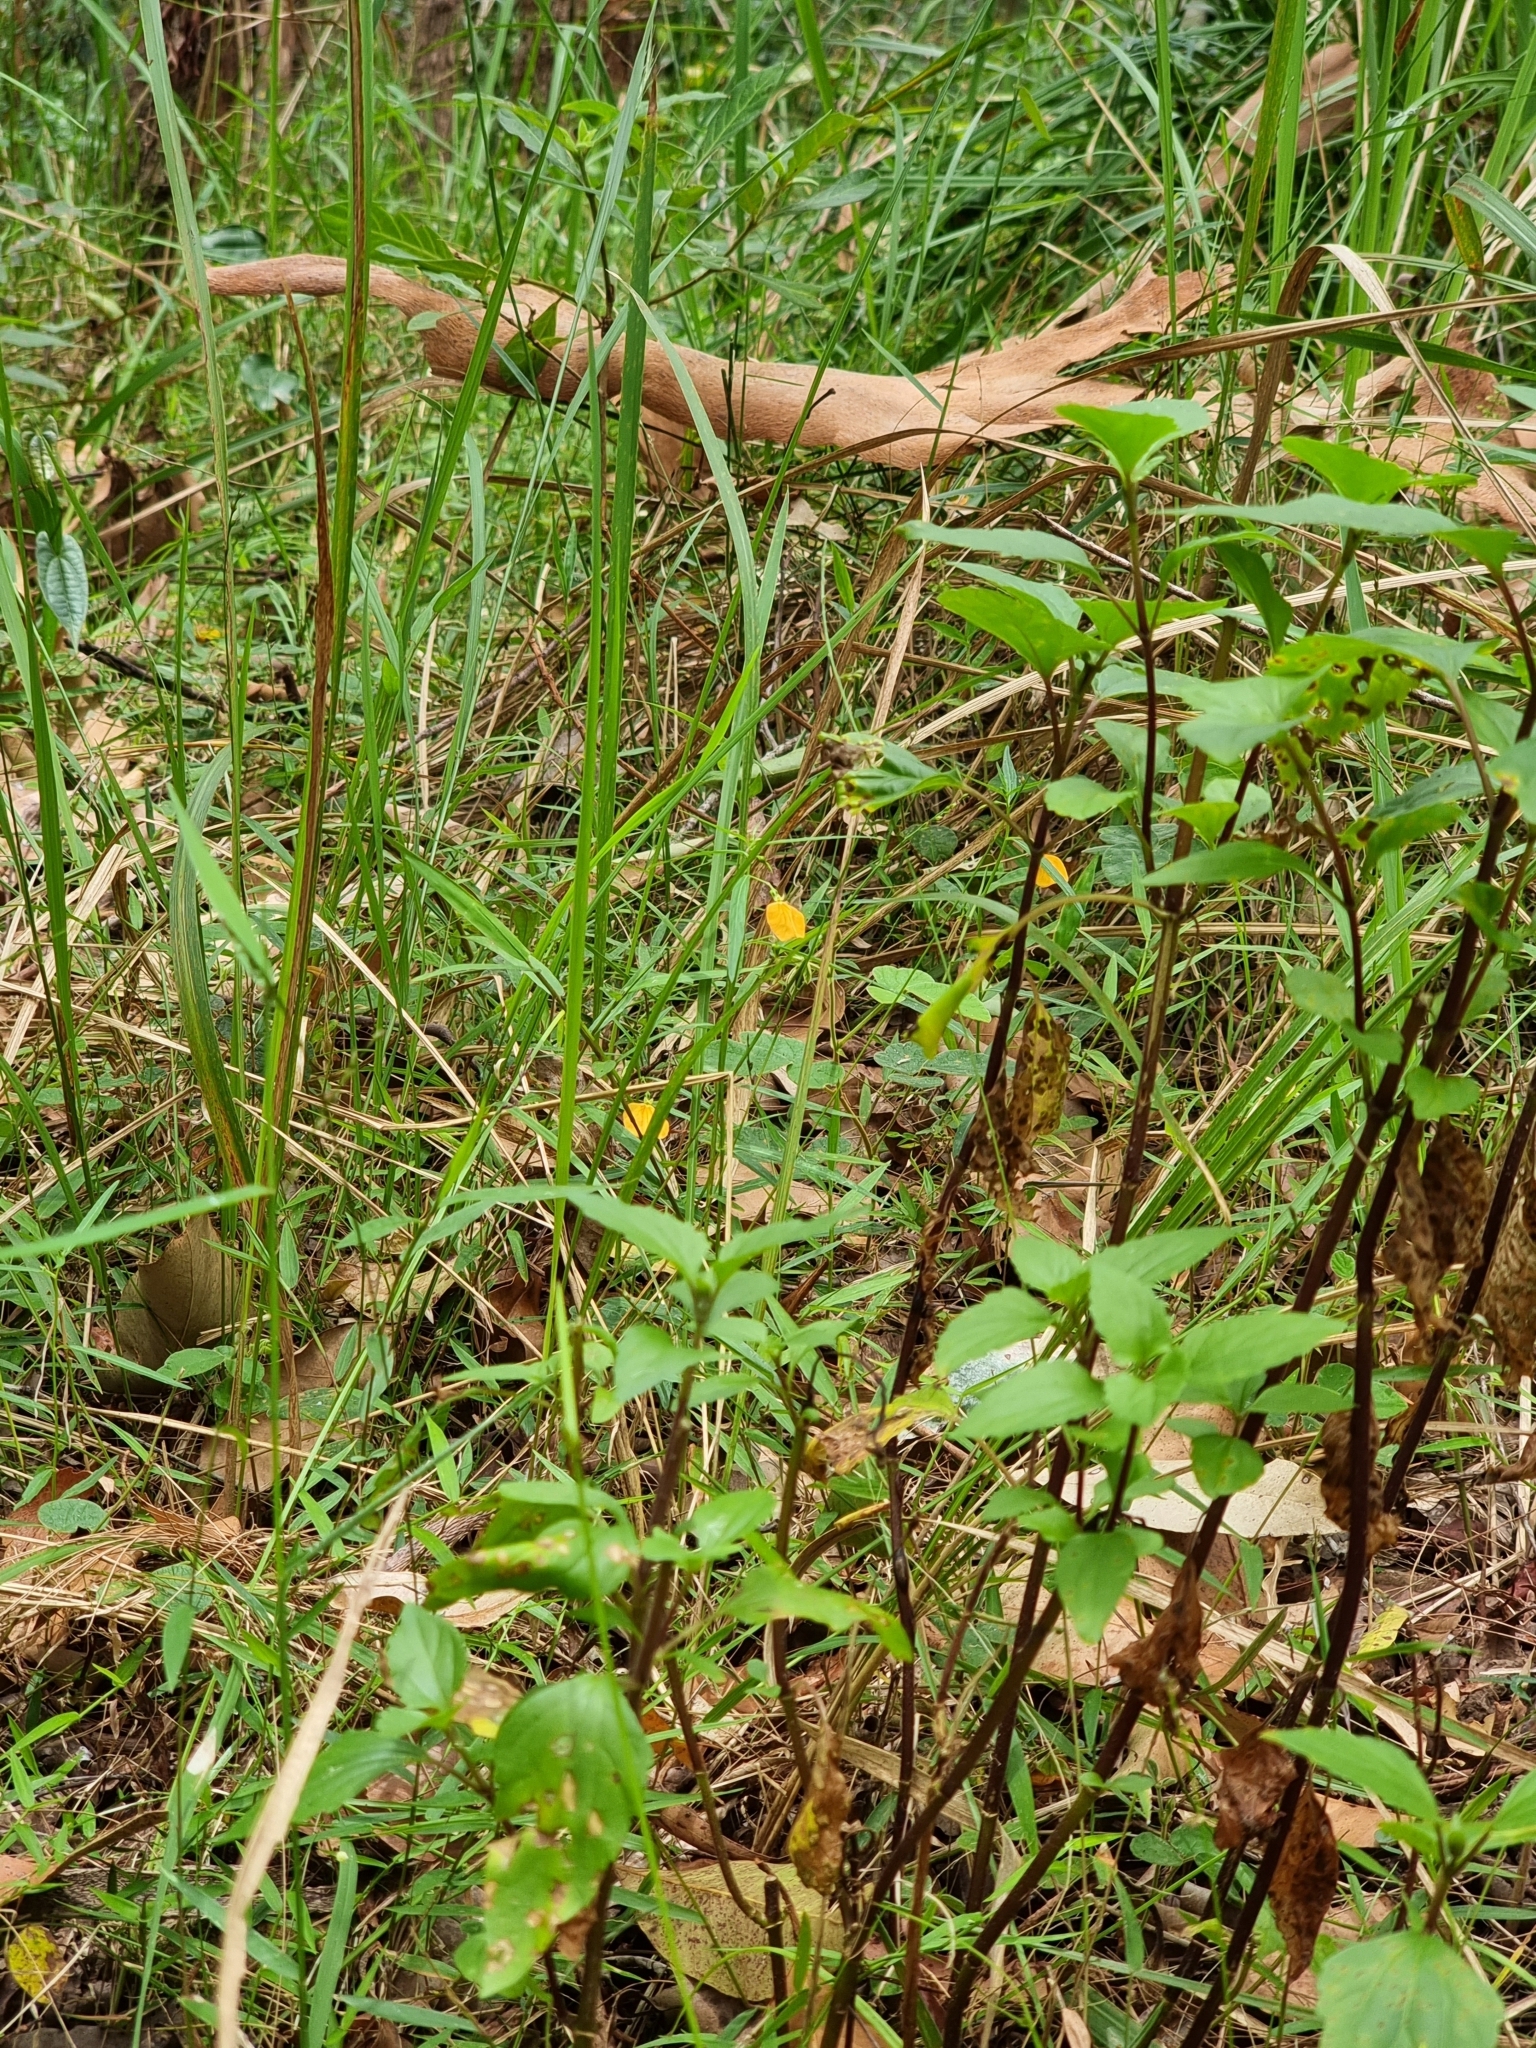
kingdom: Plantae
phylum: Tracheophyta
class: Magnoliopsida
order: Malpighiales
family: Violaceae
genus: Pigea
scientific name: Pigea stellarioides
